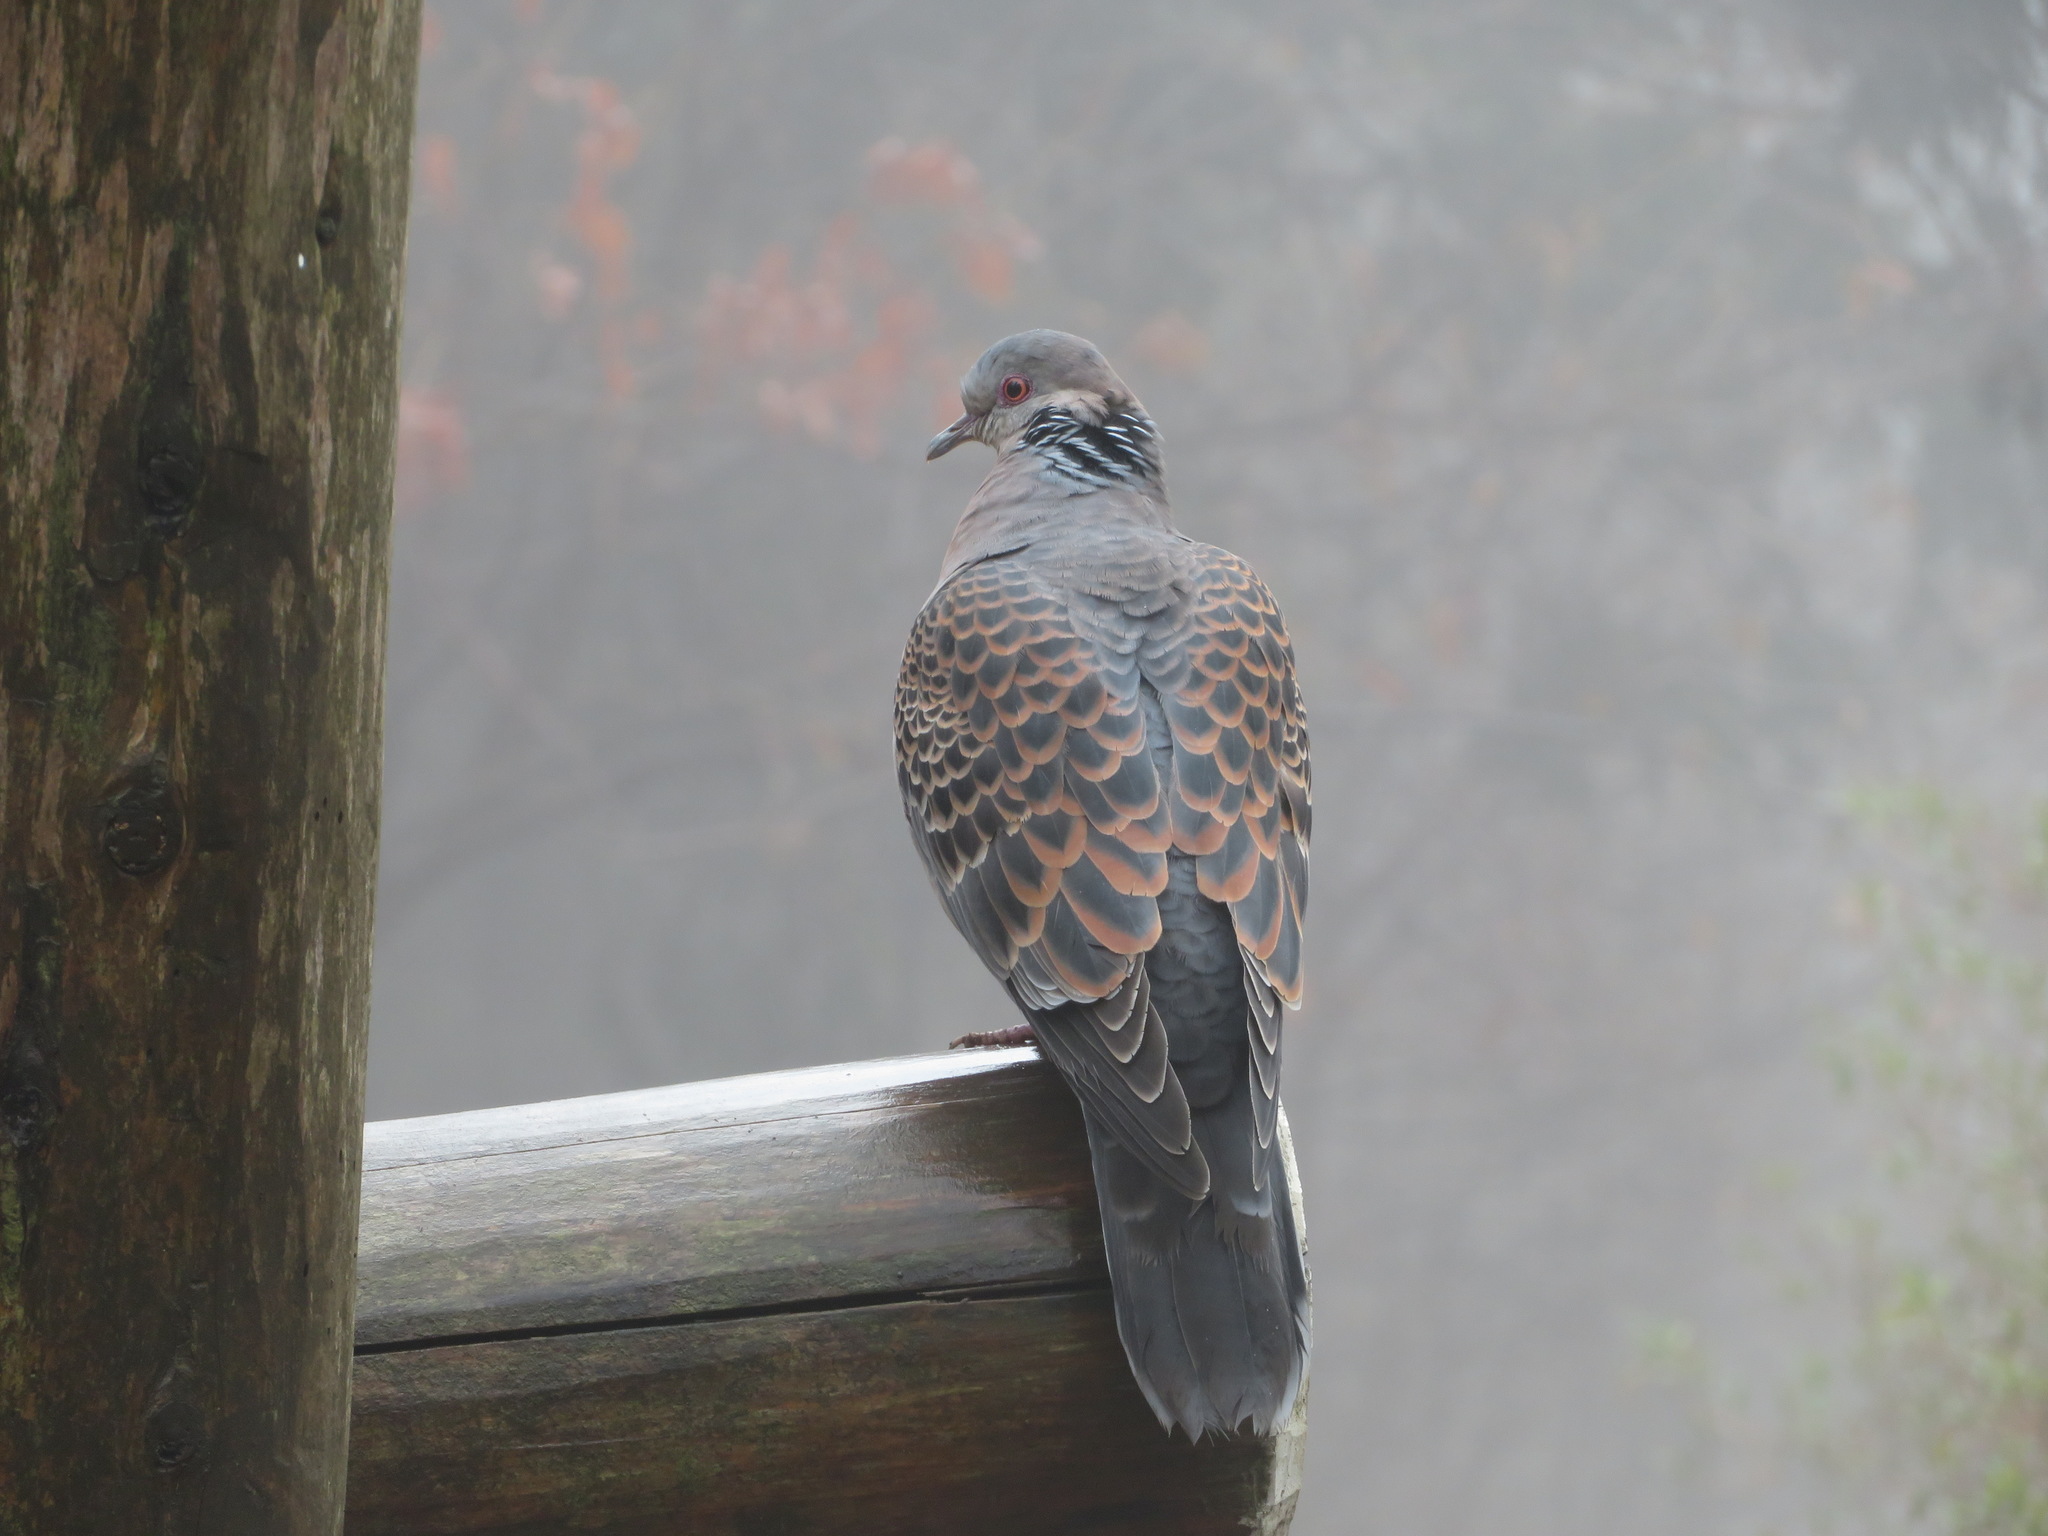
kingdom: Animalia
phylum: Chordata
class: Aves
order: Columbiformes
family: Columbidae
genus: Streptopelia
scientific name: Streptopelia orientalis
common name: Oriental turtle dove
